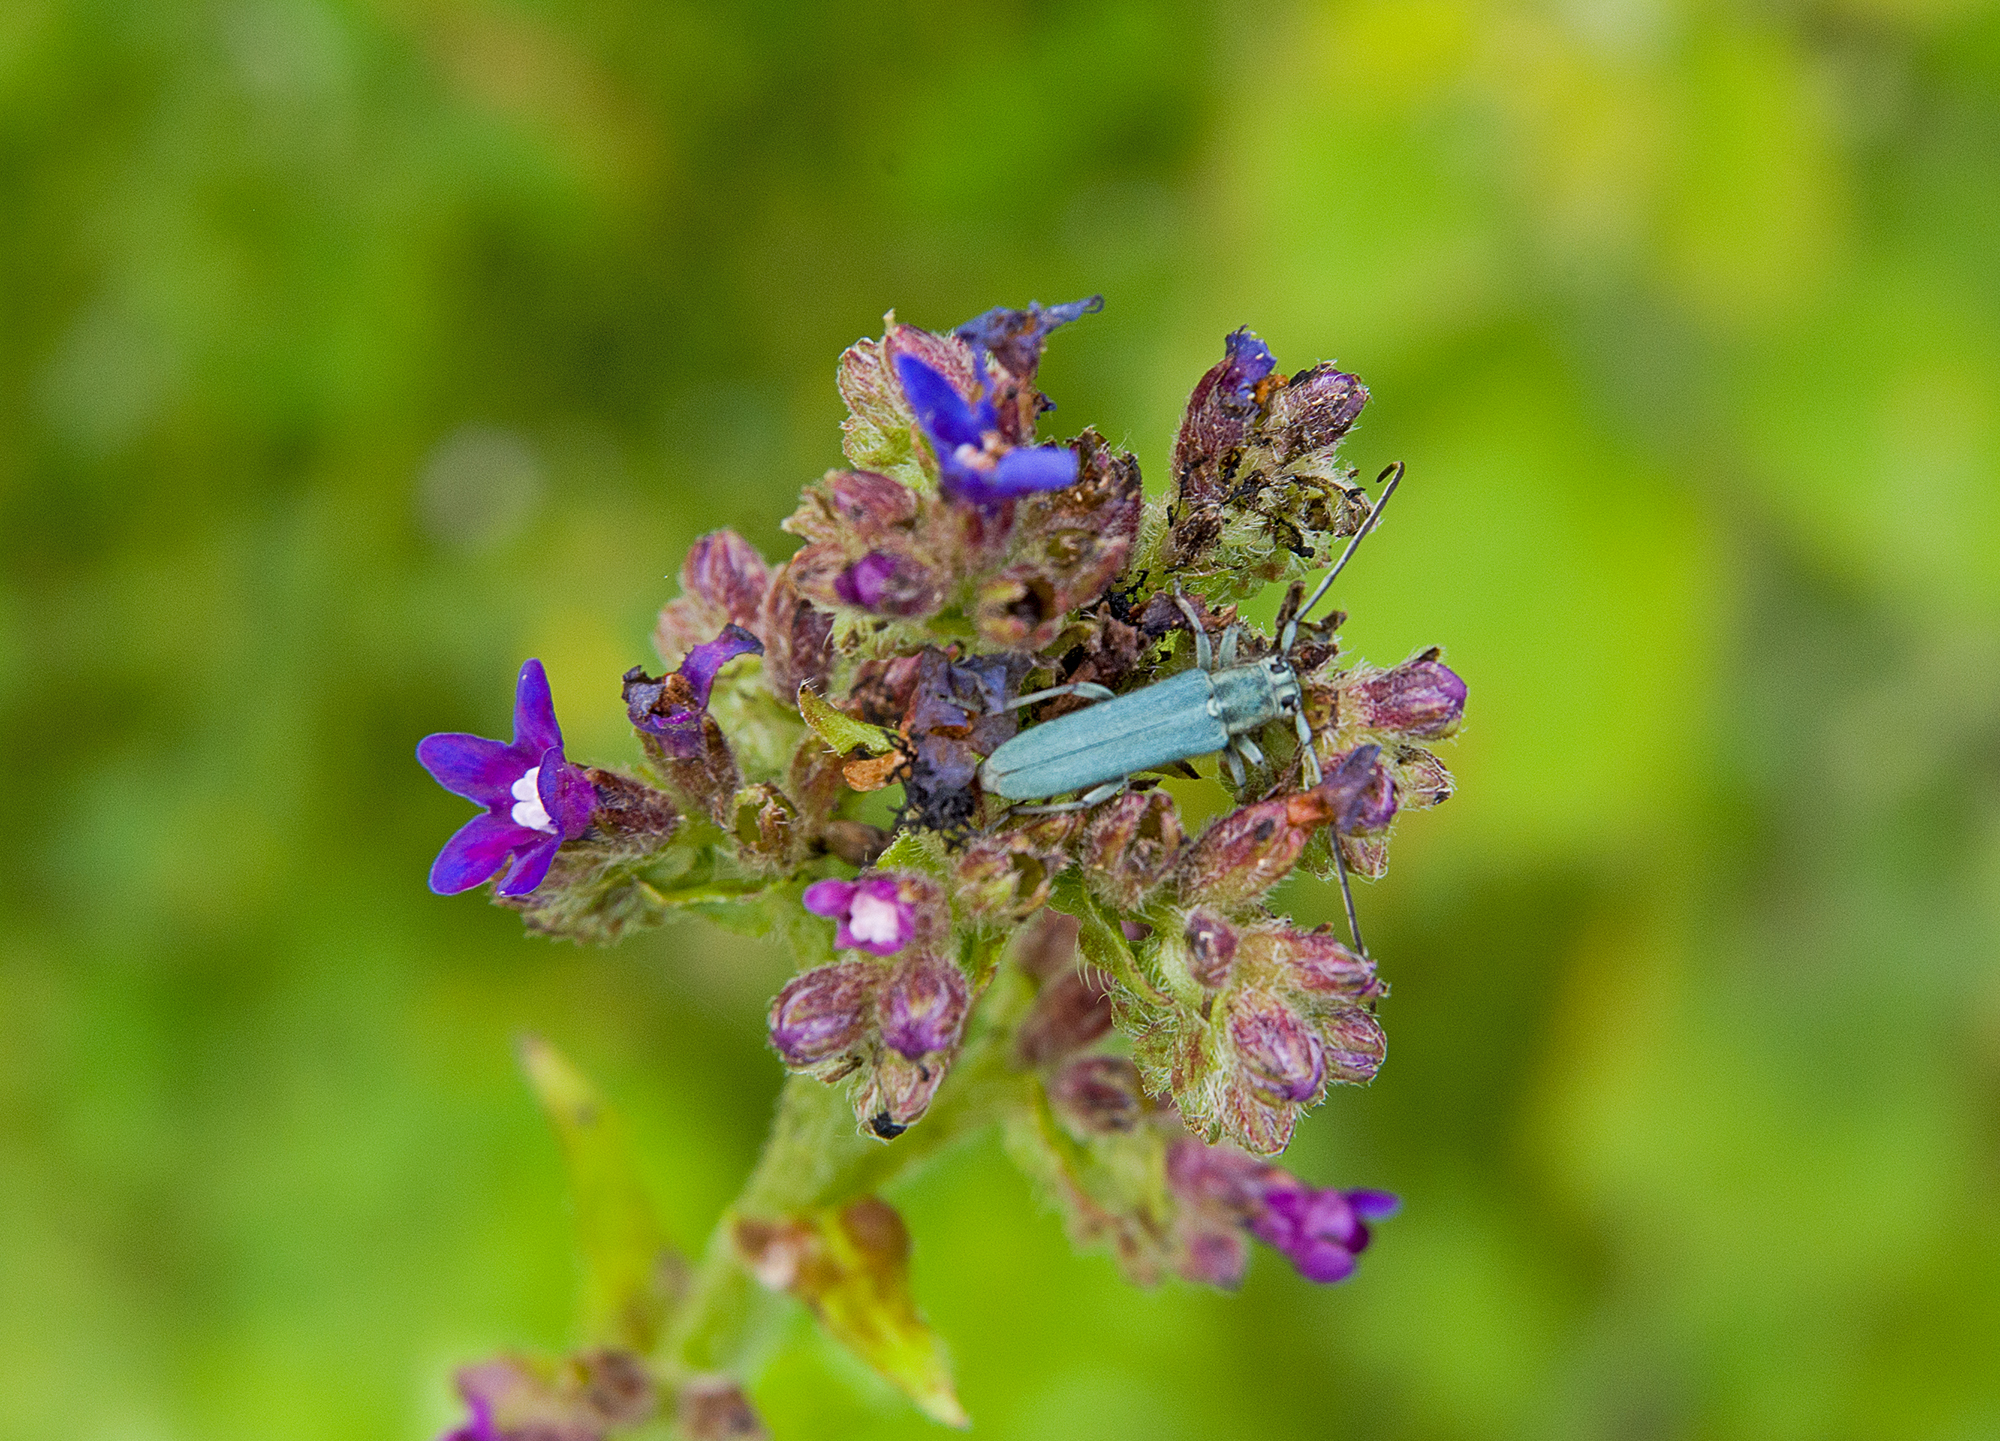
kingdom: Animalia
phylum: Arthropoda
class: Insecta
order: Coleoptera
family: Cerambycidae
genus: Phytoecia
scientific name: Phytoecia coerulescens
